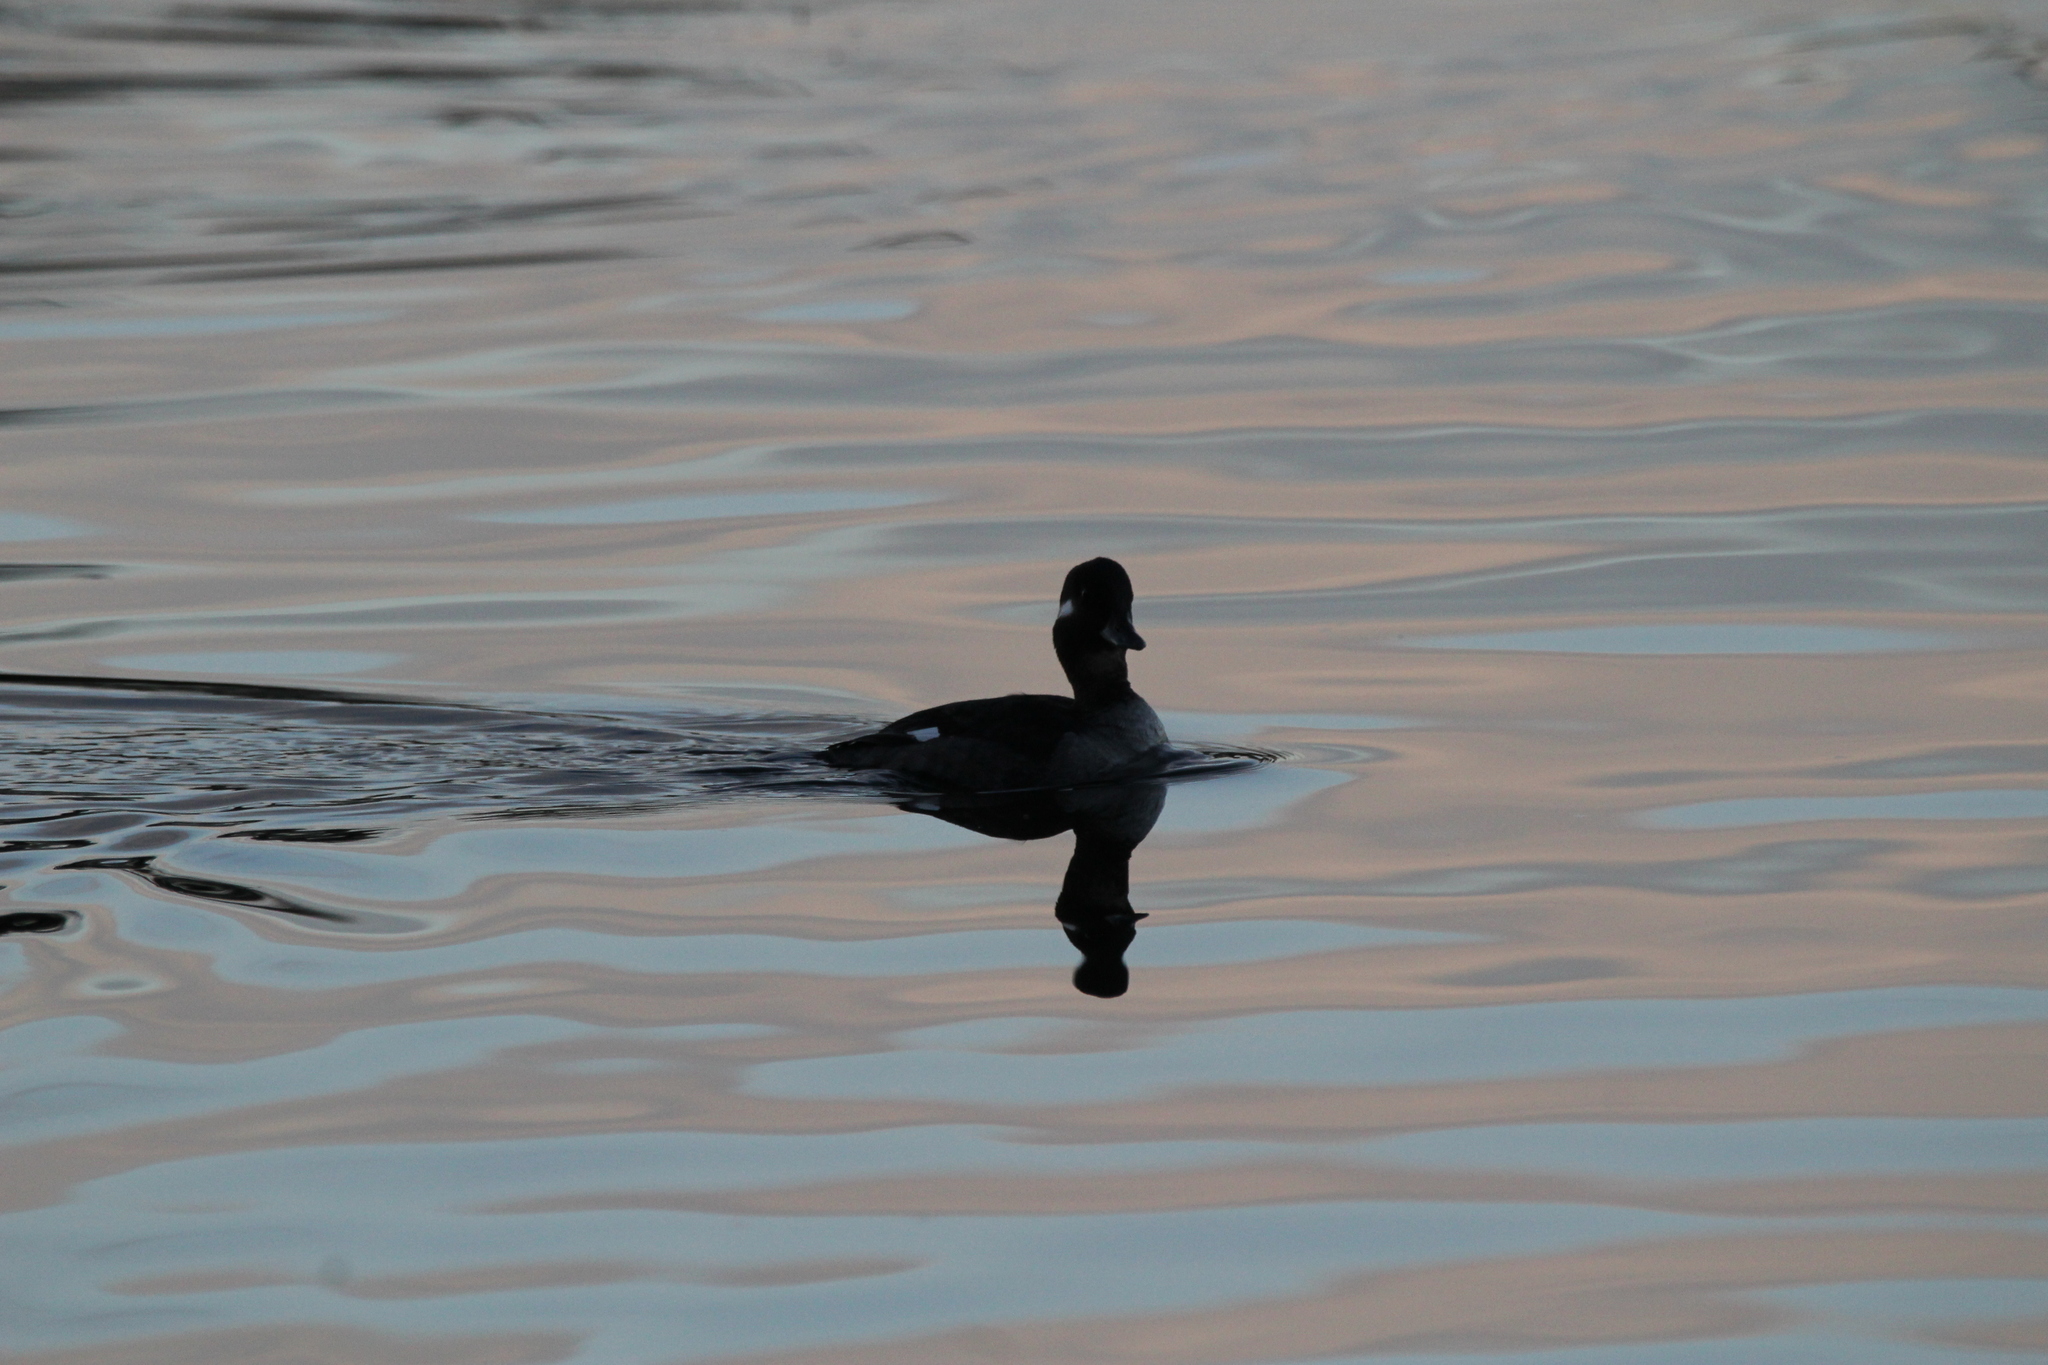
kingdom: Animalia
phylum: Chordata
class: Aves
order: Anseriformes
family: Anatidae
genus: Bucephala
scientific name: Bucephala albeola
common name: Bufflehead
